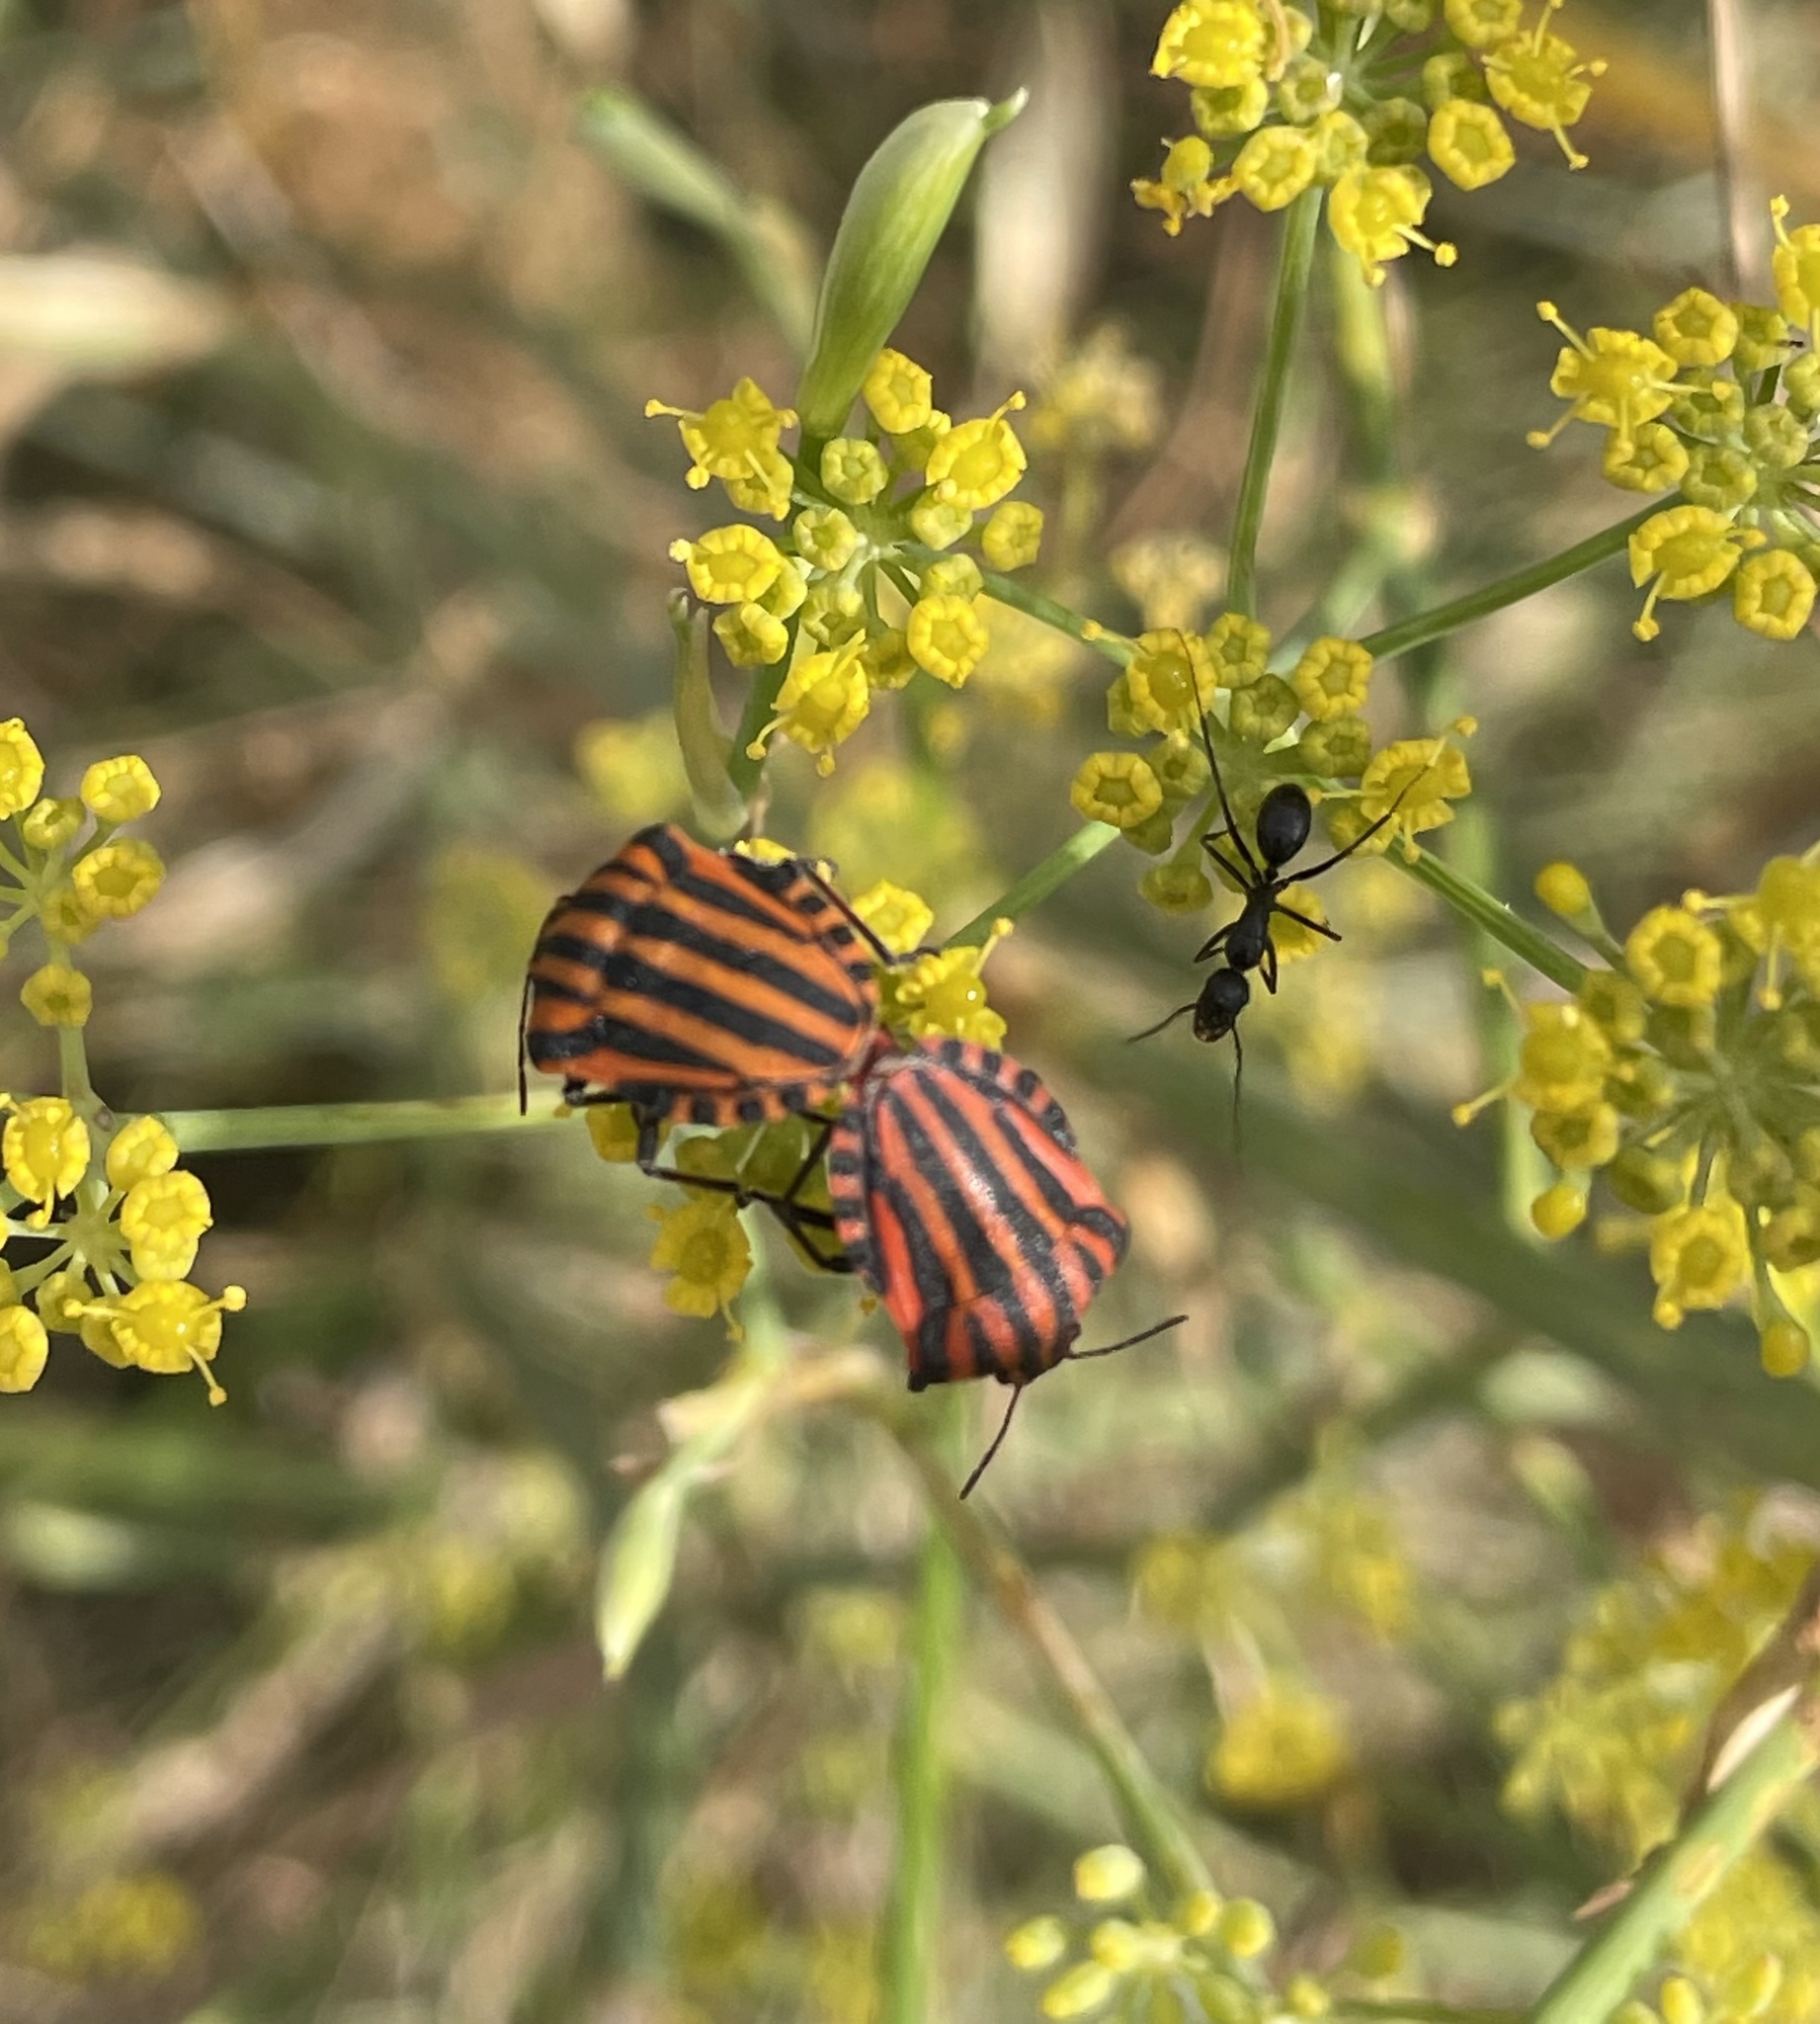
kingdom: Animalia
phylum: Arthropoda
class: Insecta
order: Hemiptera
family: Pentatomidae
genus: Graphosoma
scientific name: Graphosoma italicum
